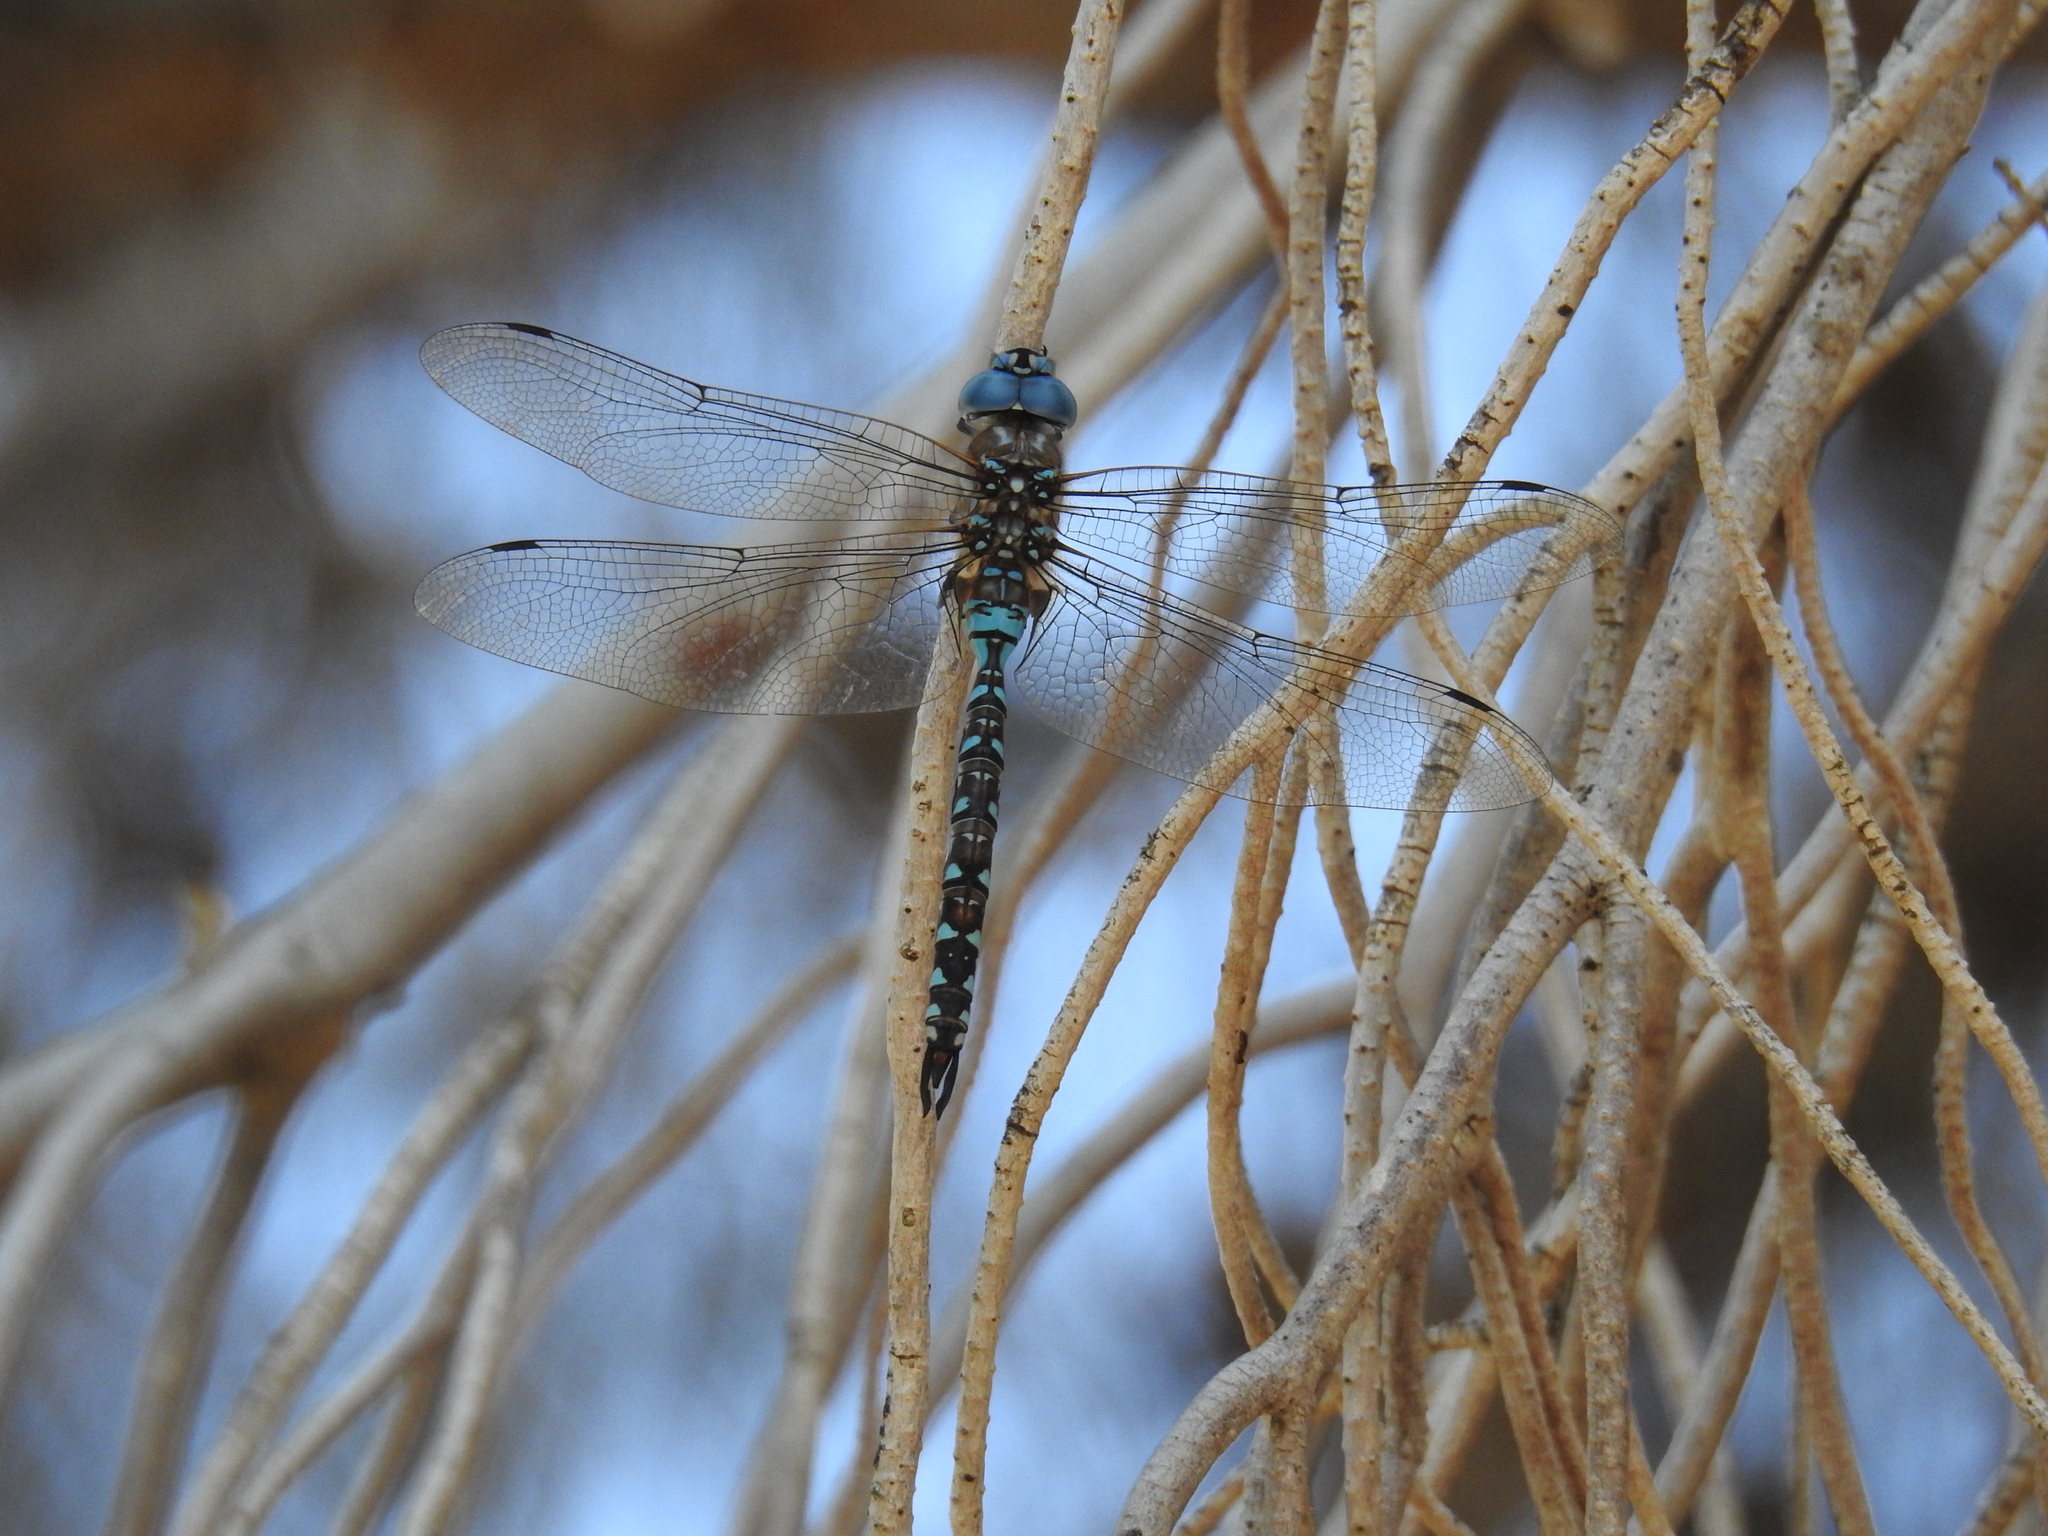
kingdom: Animalia
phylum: Arthropoda
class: Insecta
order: Odonata
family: Aeshnidae
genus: Rhionaeschna
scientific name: Rhionaeschna multicolor
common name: Blue-eyed darner
